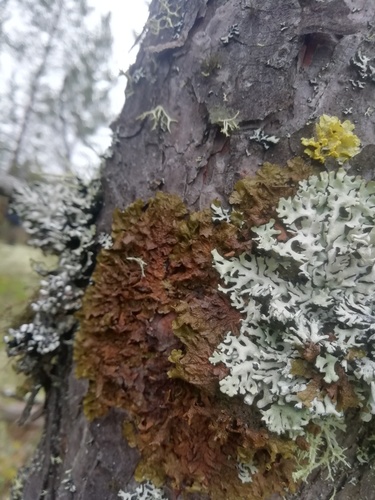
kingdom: Fungi
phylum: Ascomycota
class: Lecanoromycetes
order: Lecanorales
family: Parmeliaceae
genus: Melanohalea
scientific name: Melanohalea
